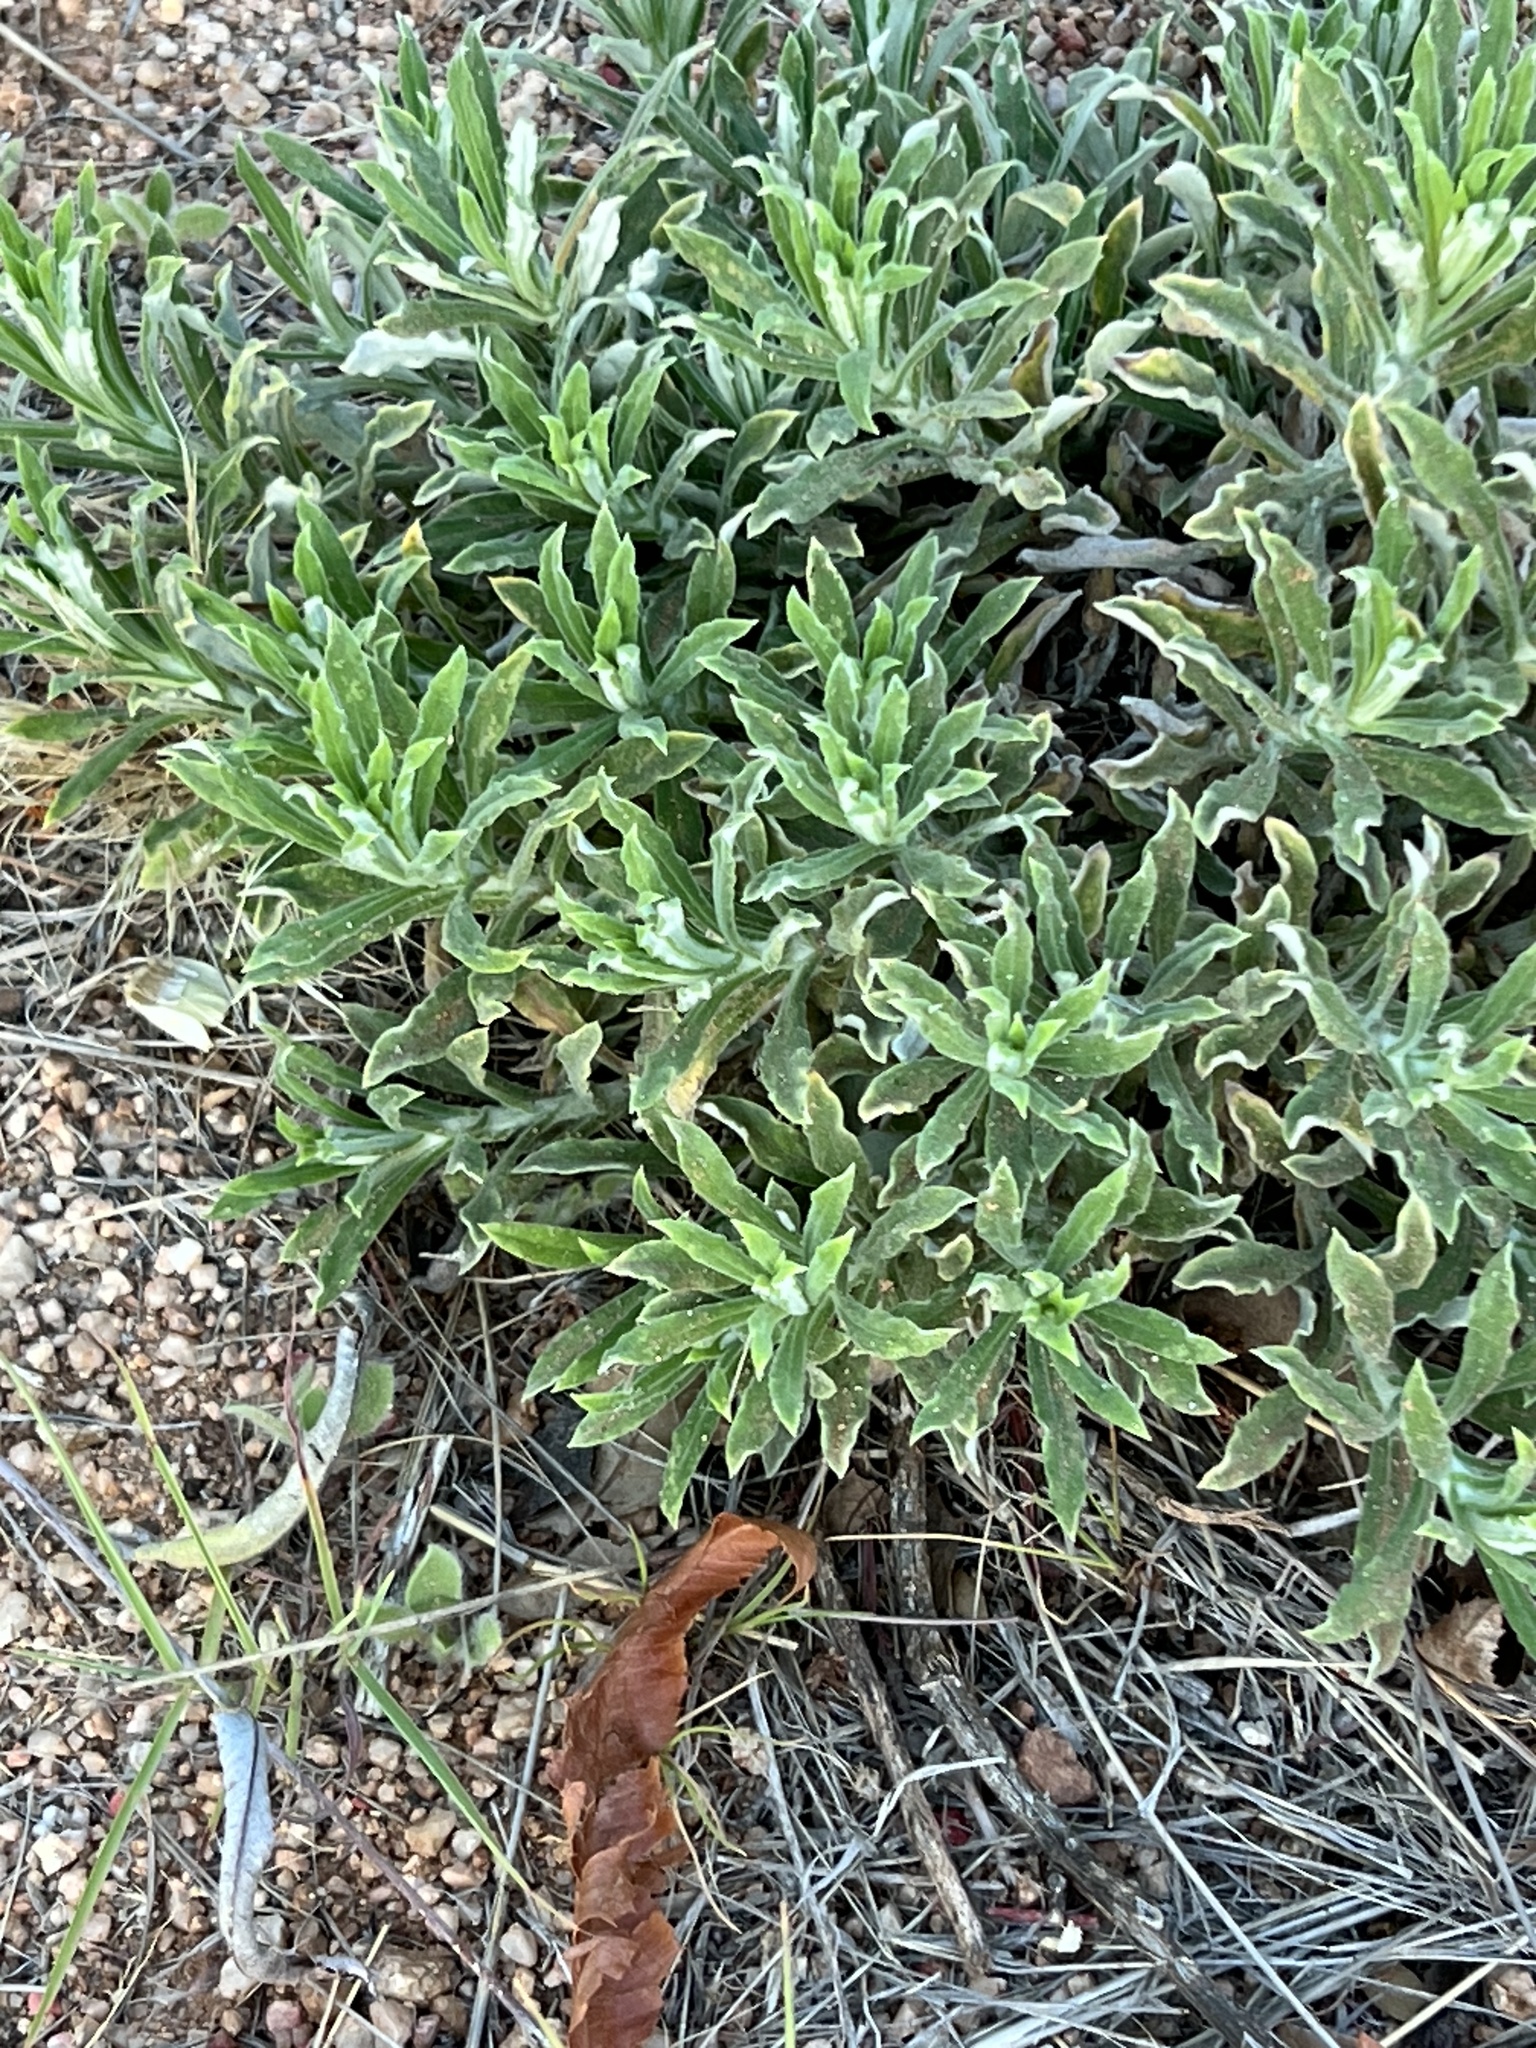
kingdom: Plantae
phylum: Tracheophyta
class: Magnoliopsida
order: Asterales
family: Asteraceae
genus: Pseudognaphalium
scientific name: Pseudognaphalium leucocephalum
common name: White cudweed
